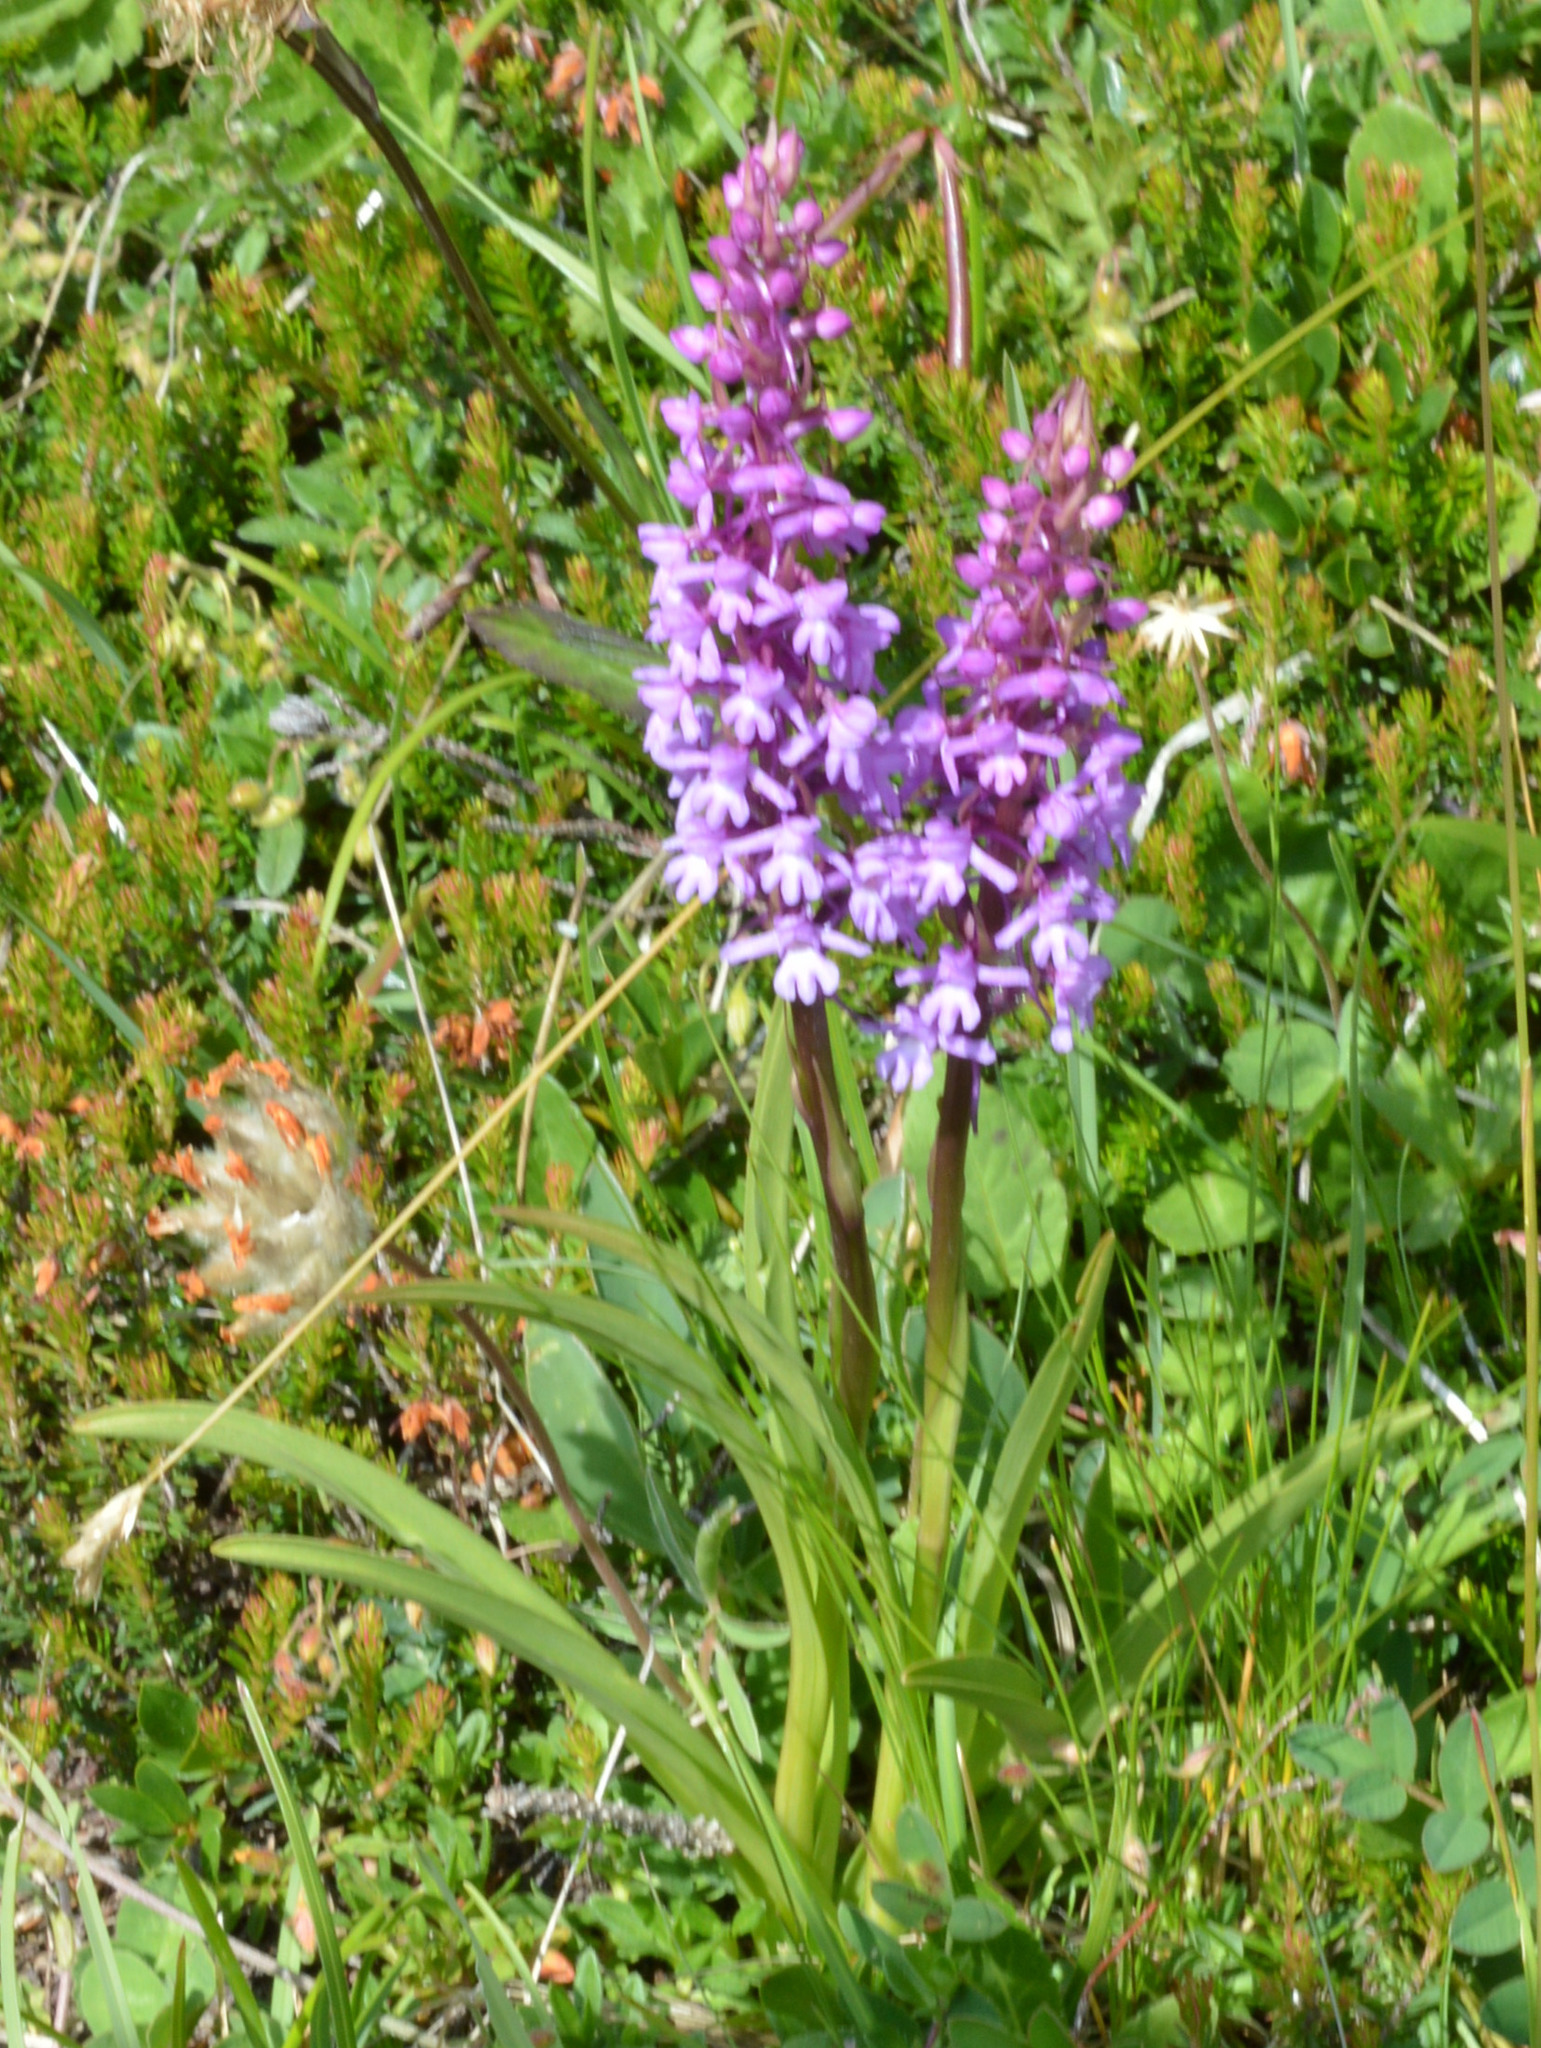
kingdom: Plantae
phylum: Tracheophyta
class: Liliopsida
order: Asparagales
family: Orchidaceae
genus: Gymnadenia
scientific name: Gymnadenia conopsea
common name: Fragrant orchid
